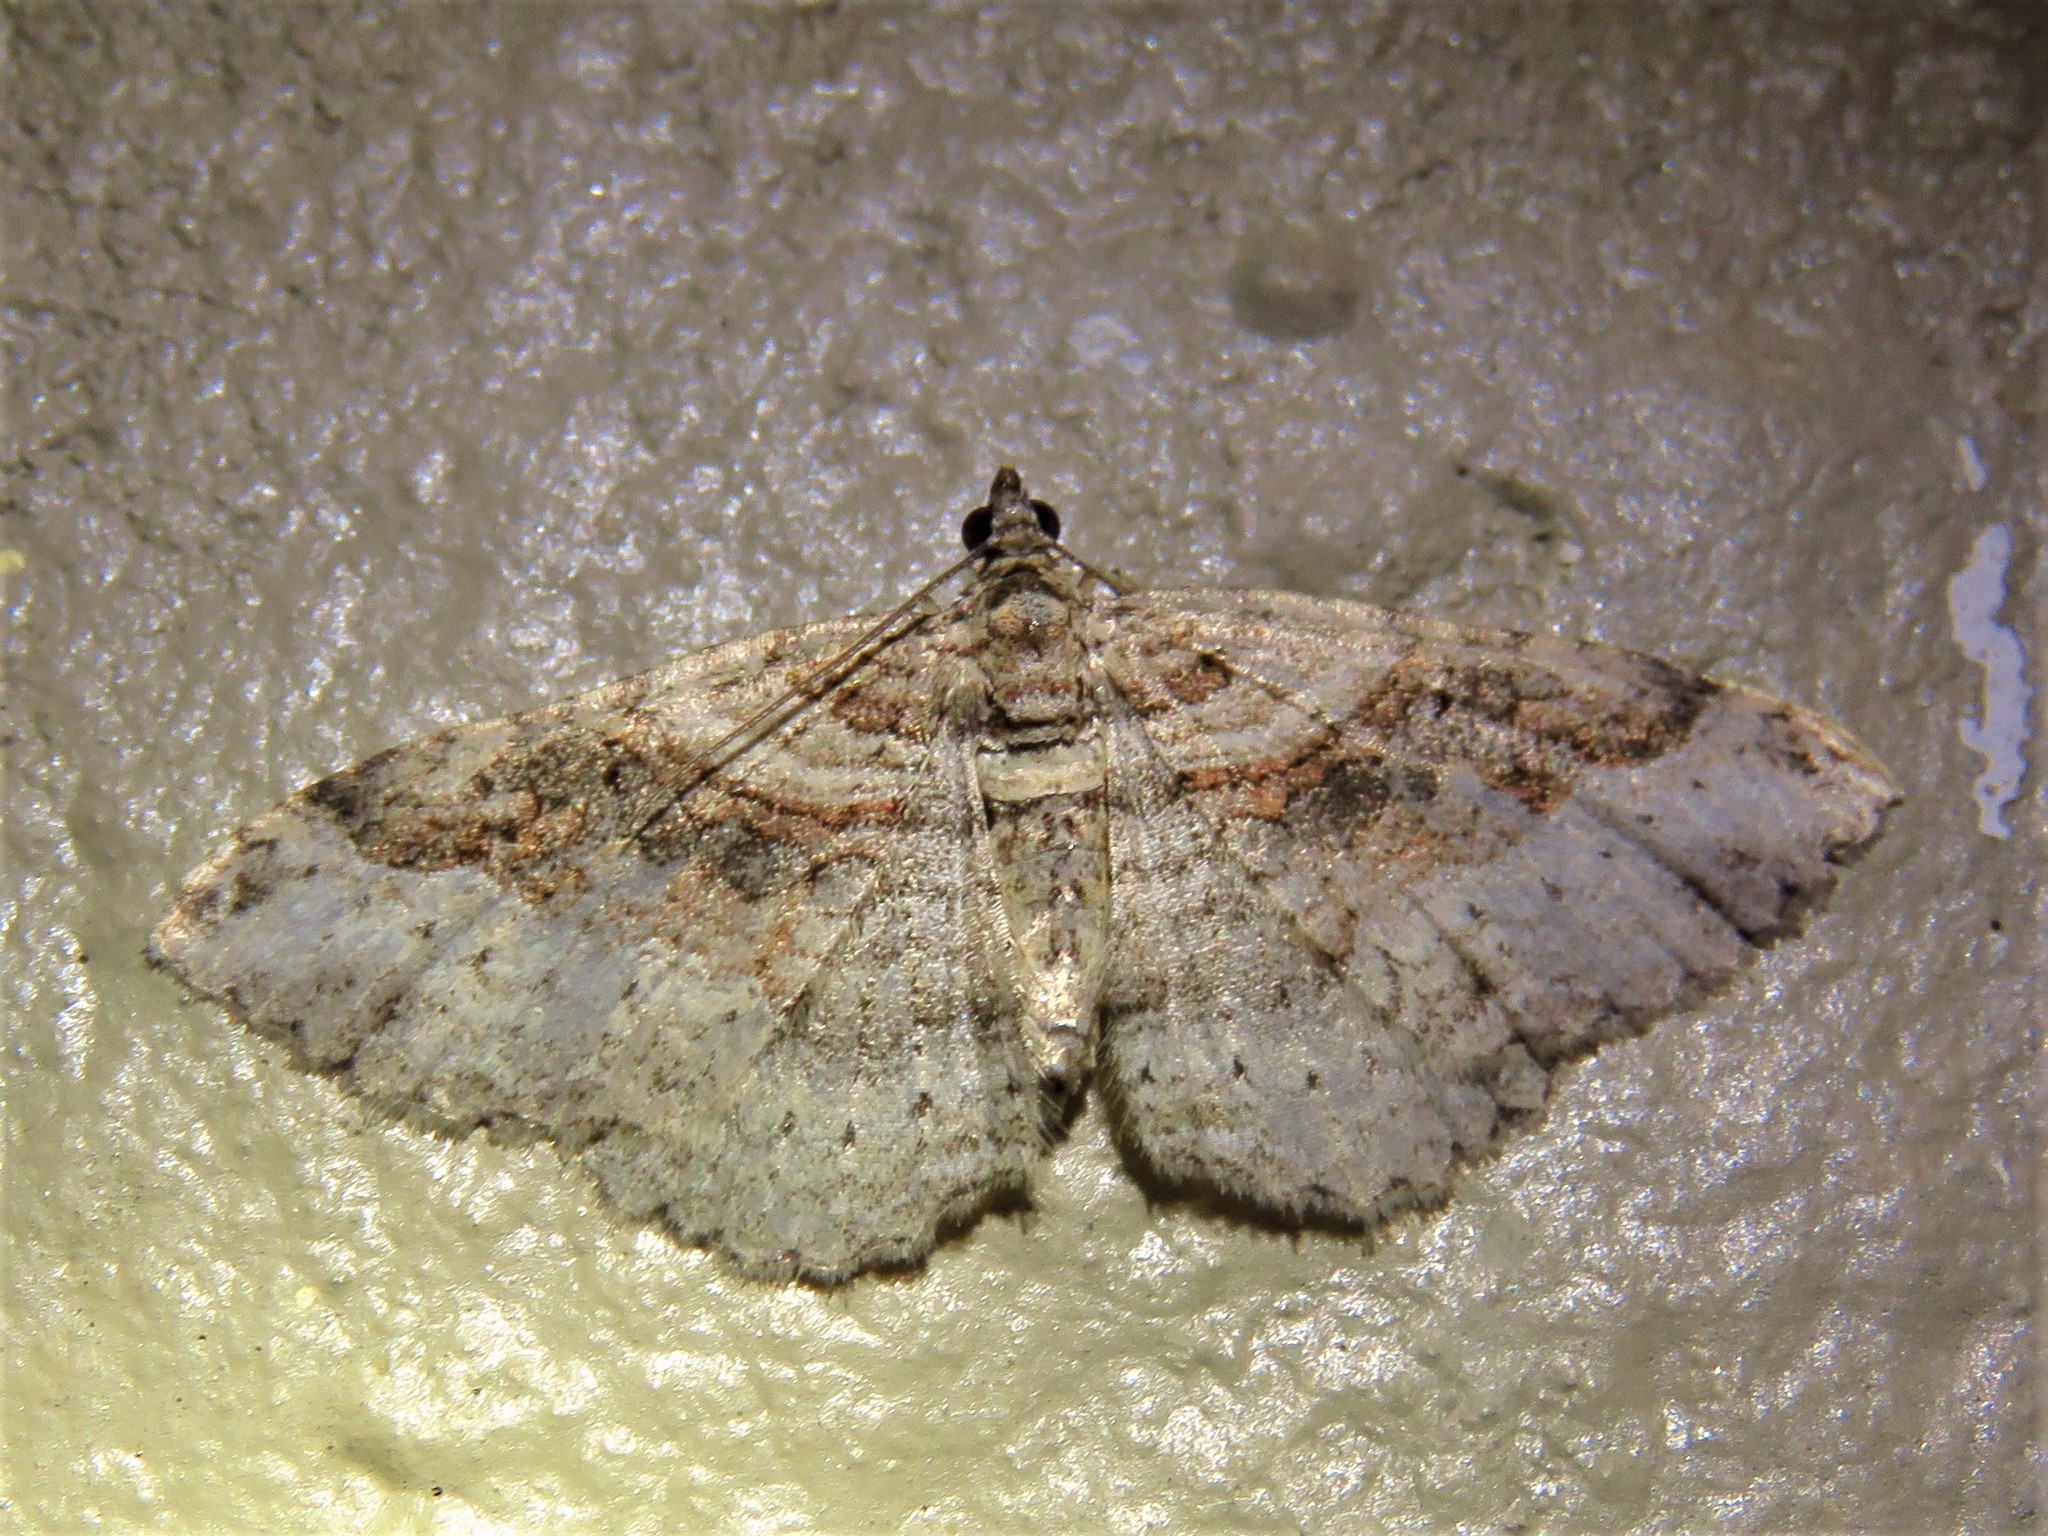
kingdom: Animalia
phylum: Arthropoda
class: Insecta
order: Lepidoptera
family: Geometridae
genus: Costaconvexa
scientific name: Costaconvexa centrostrigaria
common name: Bent-line carpet
